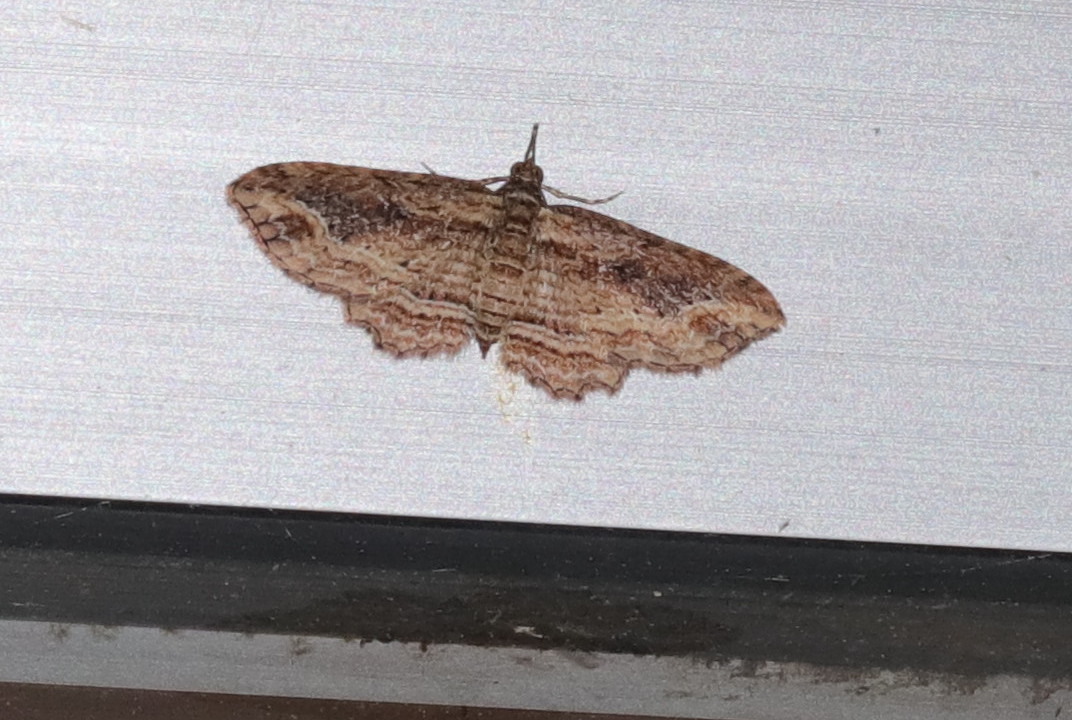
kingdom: Animalia
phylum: Arthropoda
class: Insecta
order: Lepidoptera
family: Geometridae
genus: Chloroclystis
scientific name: Chloroclystis filata
